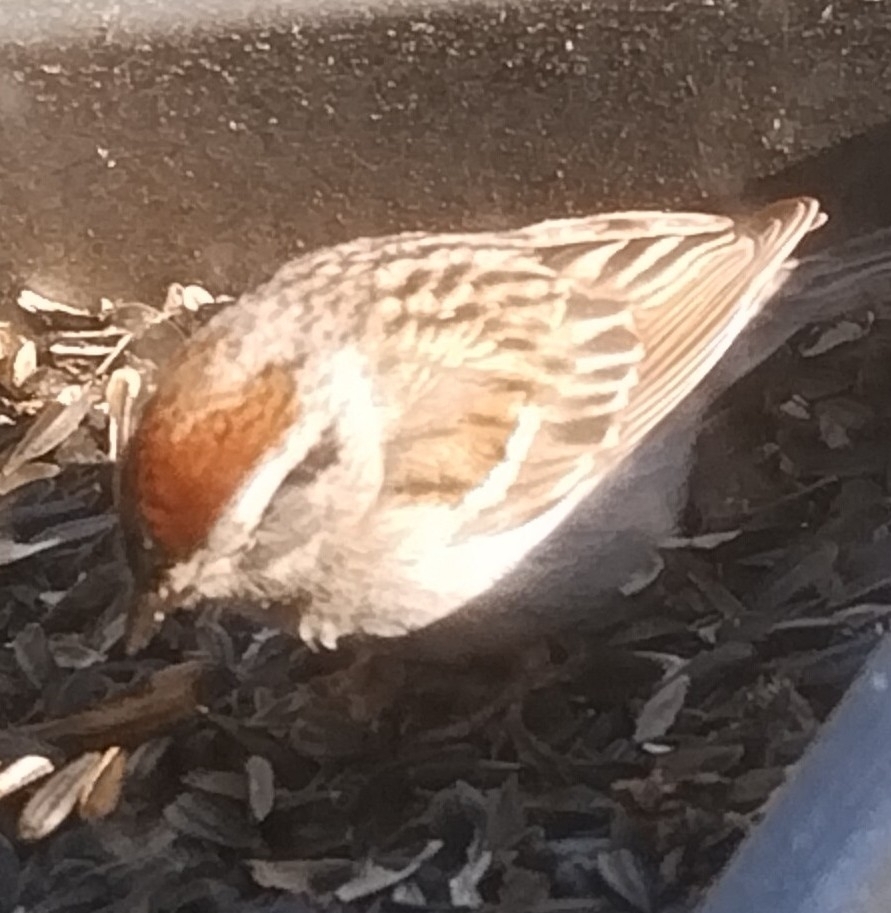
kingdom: Animalia
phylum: Chordata
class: Aves
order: Passeriformes
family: Passerellidae
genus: Spizella
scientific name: Spizella passerina
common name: Chipping sparrow
